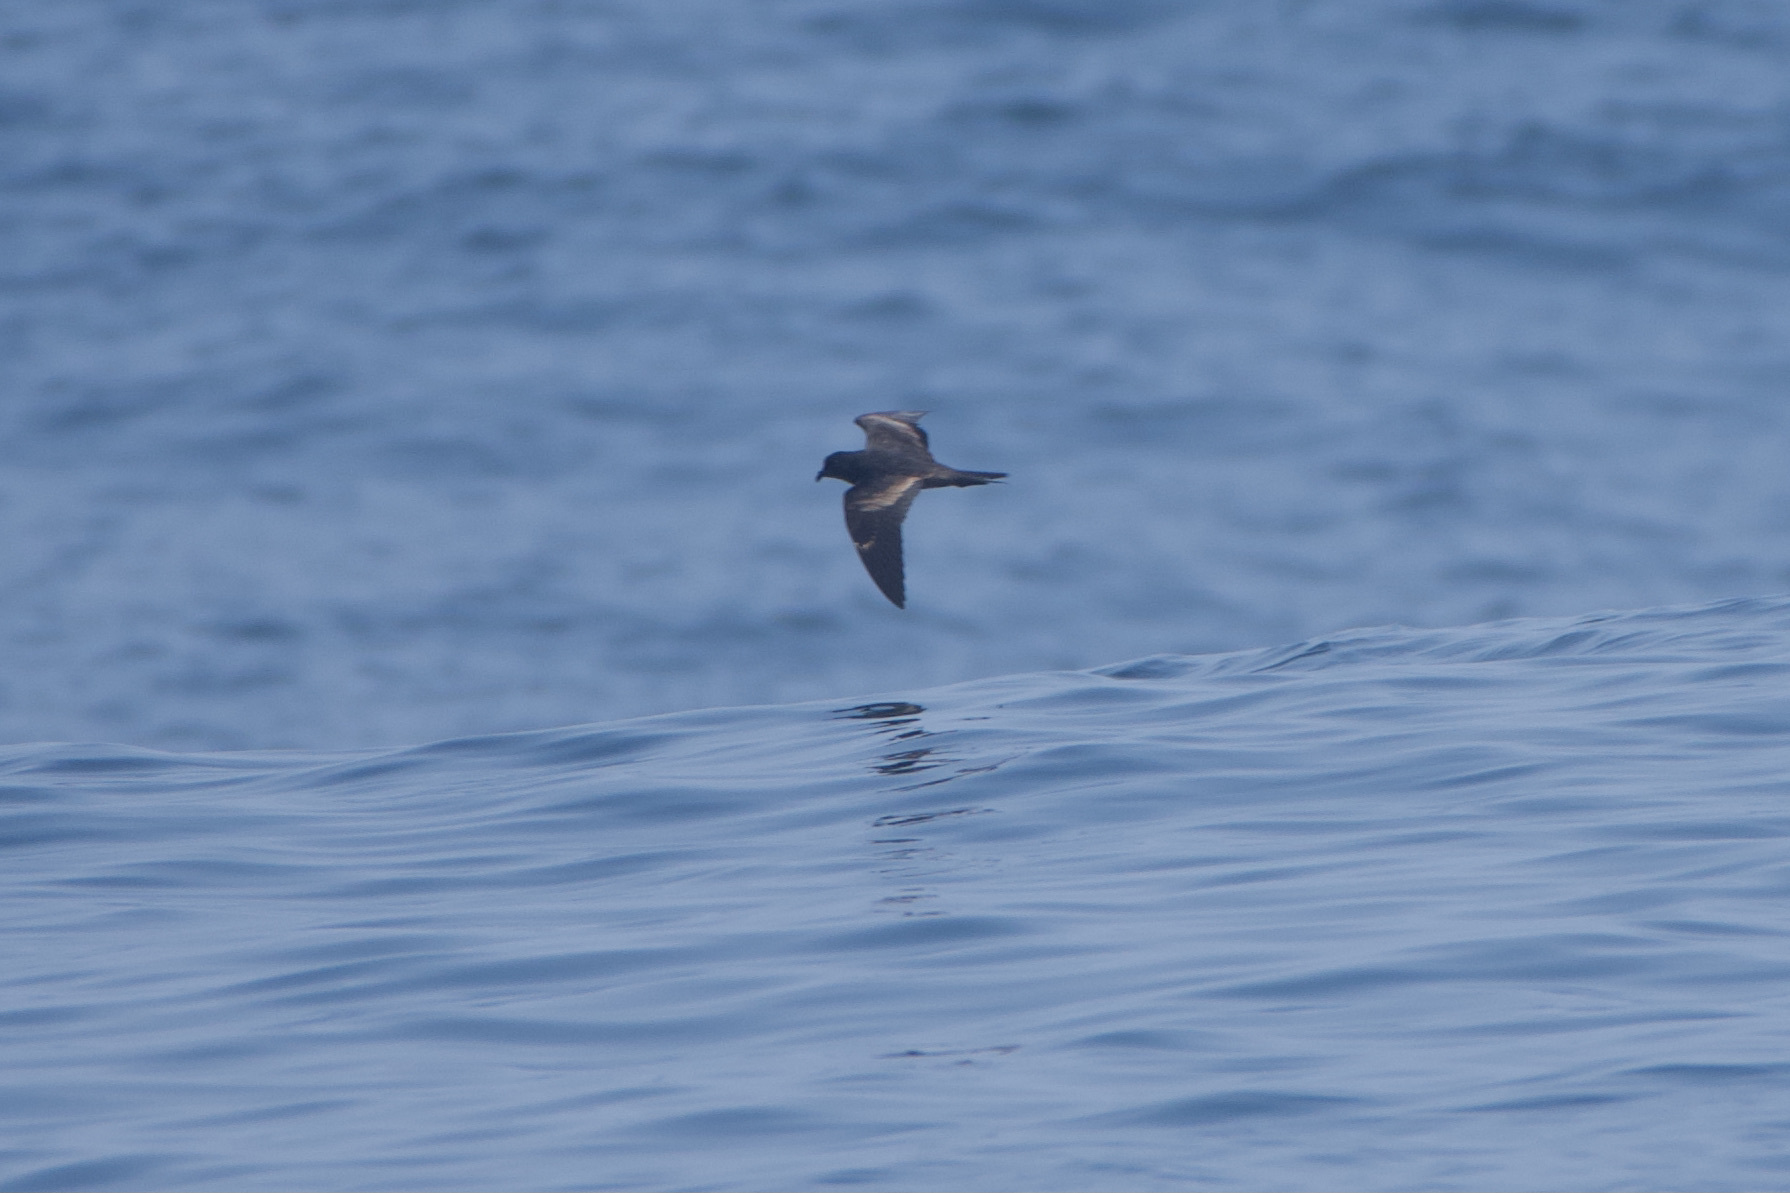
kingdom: Animalia
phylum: Chordata
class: Aves
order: Procellariiformes
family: Hydrobatidae
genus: Hydrobates
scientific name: Hydrobates melania
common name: Black storm petrel
